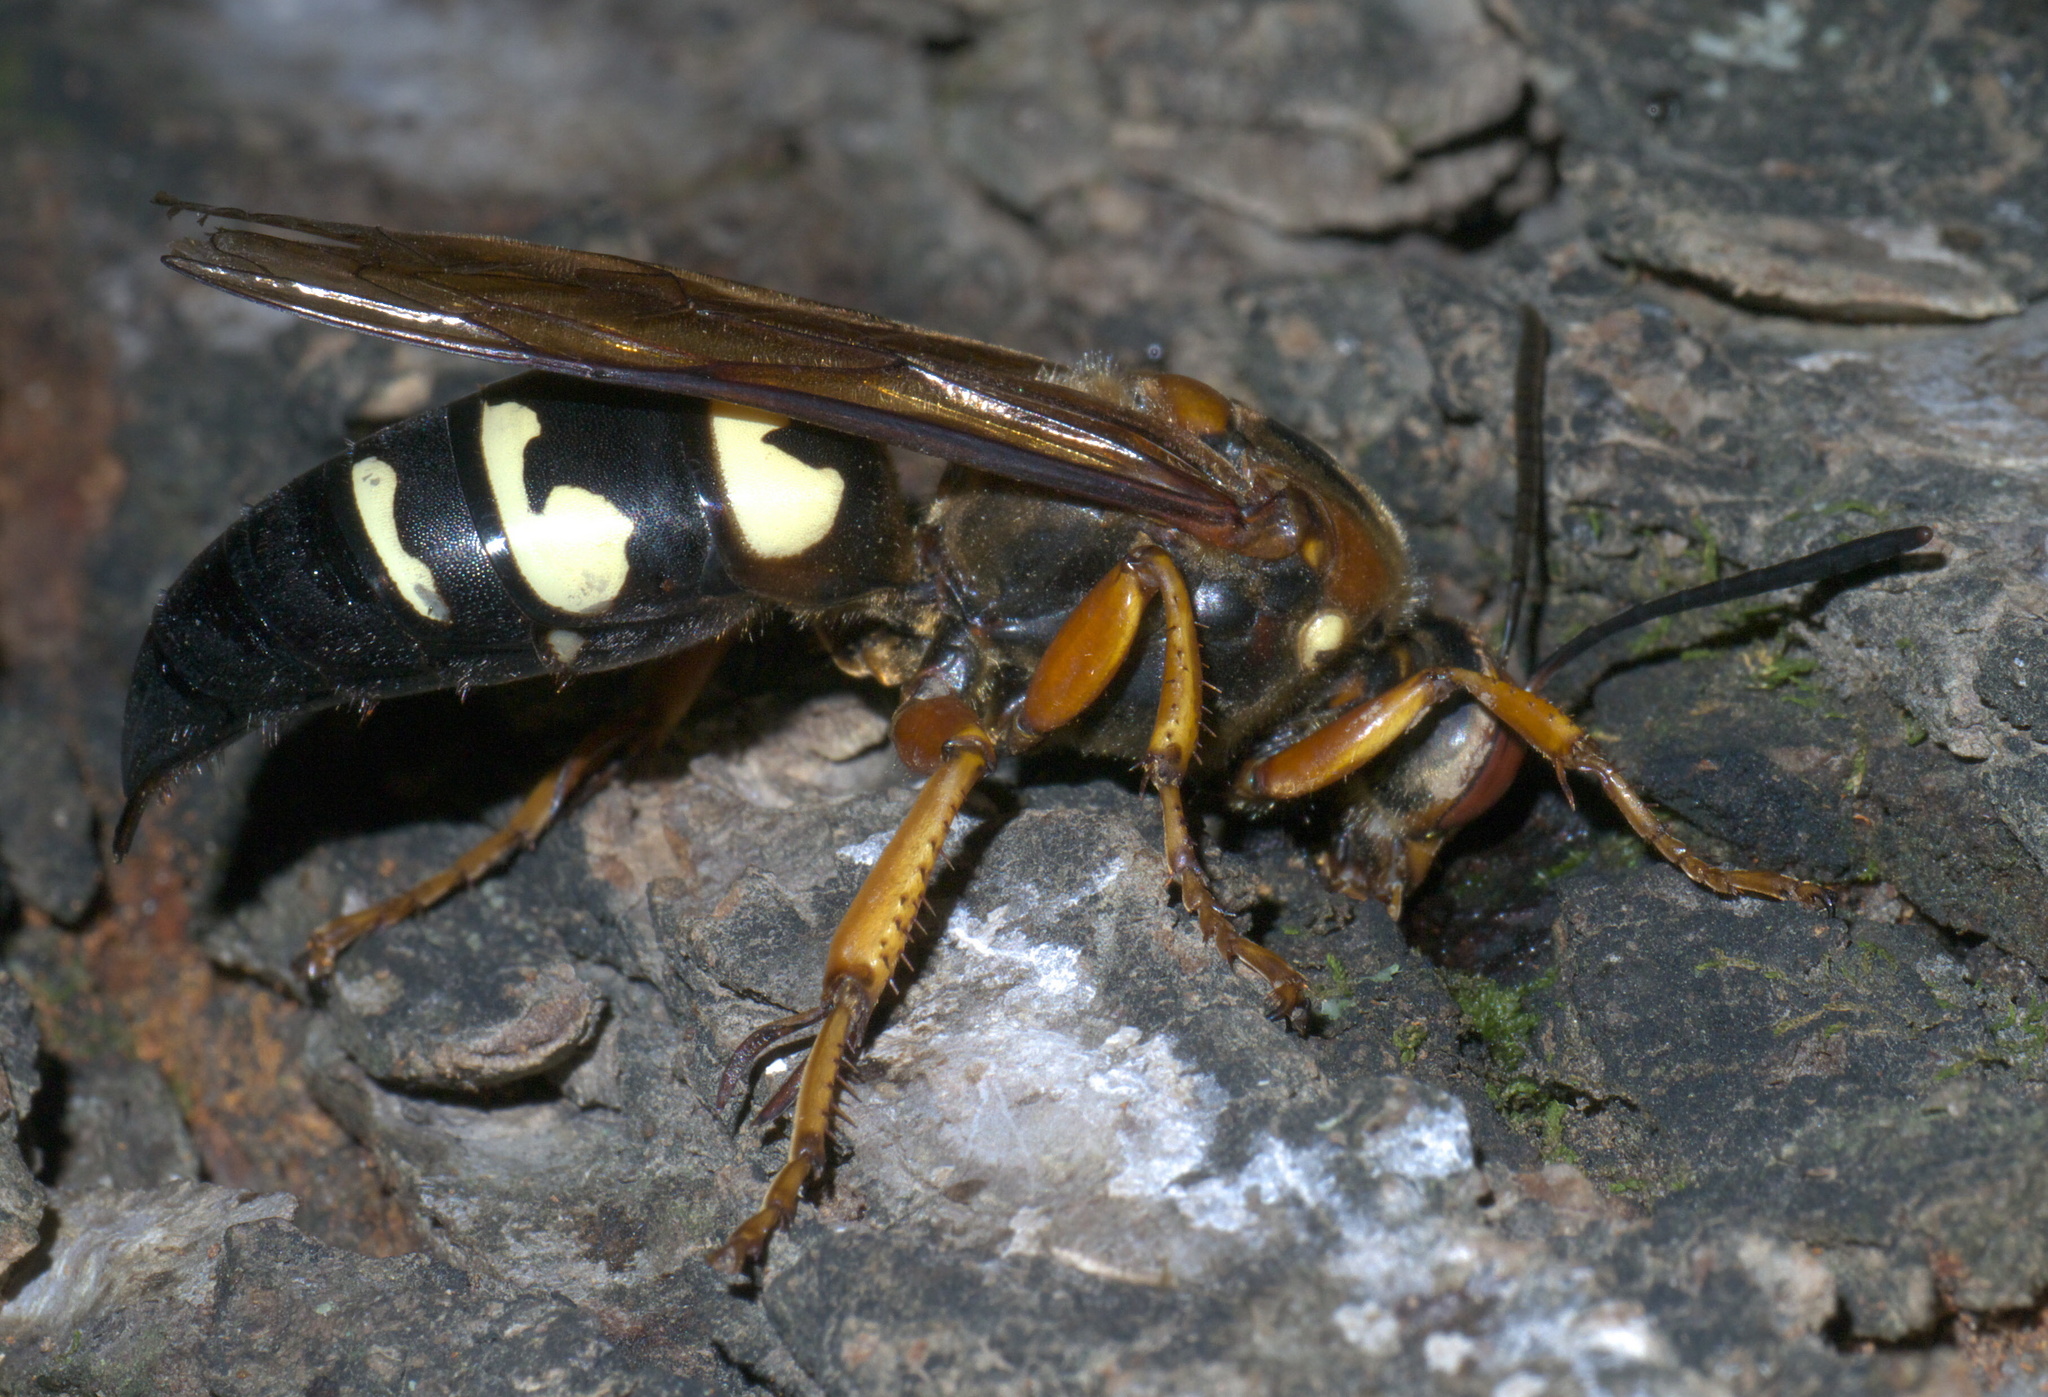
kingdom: Animalia
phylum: Arthropoda
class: Insecta
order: Hymenoptera
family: Crabronidae
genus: Sphecius
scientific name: Sphecius speciosus
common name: Cicada killer
